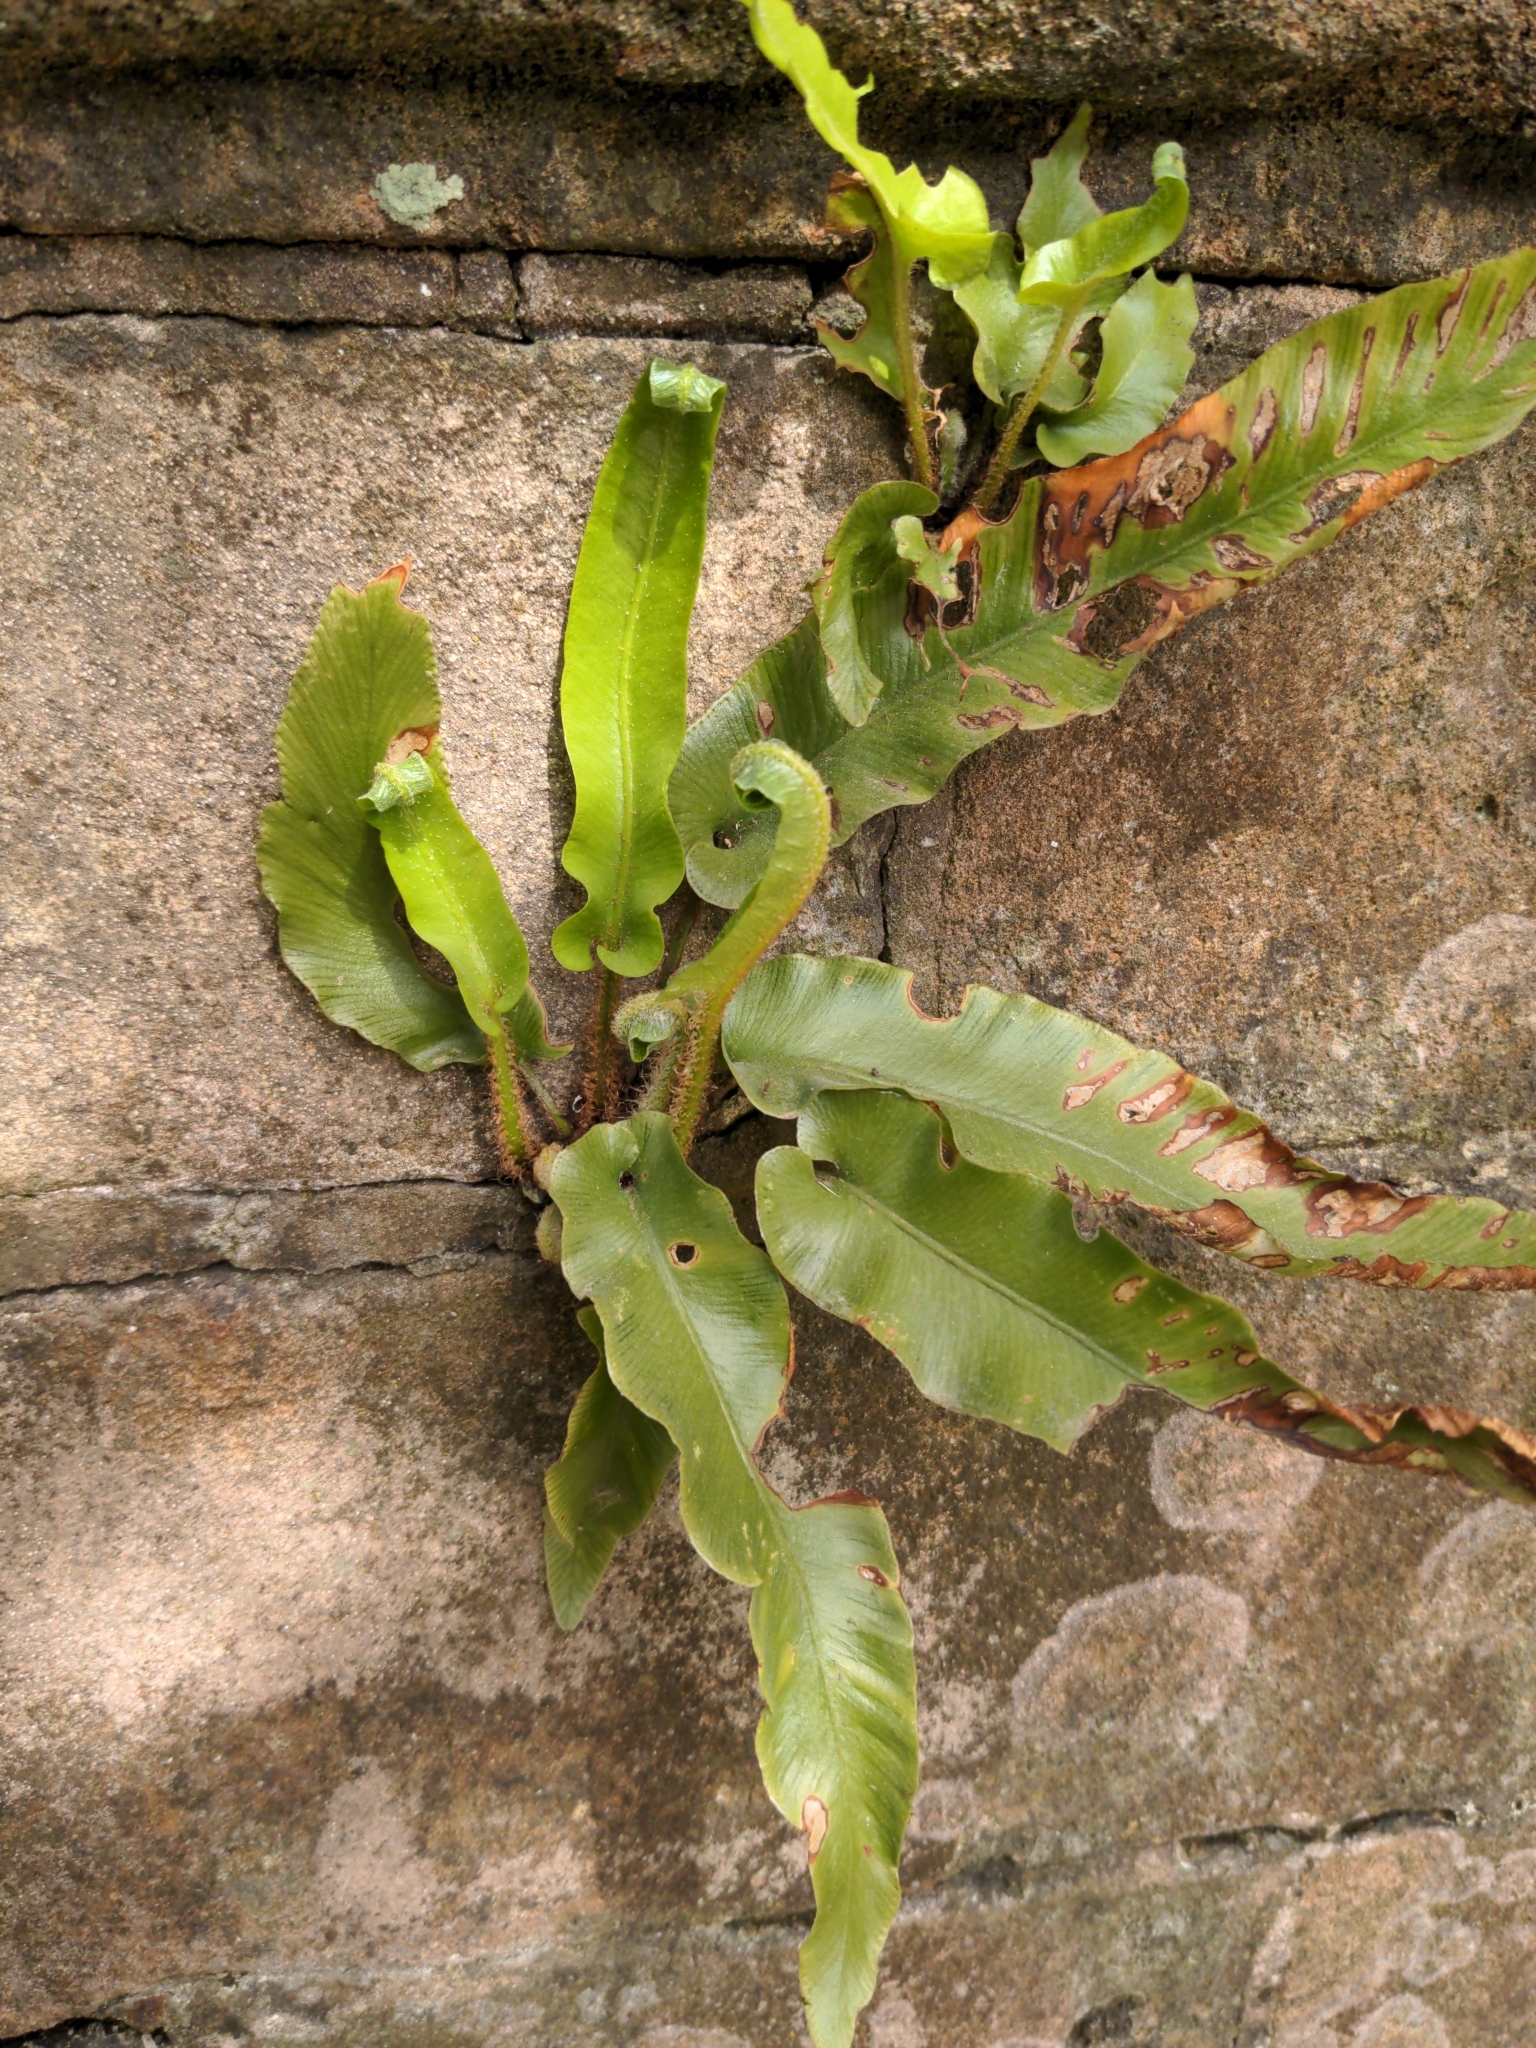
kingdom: Plantae
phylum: Tracheophyta
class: Polypodiopsida
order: Polypodiales
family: Aspleniaceae
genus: Asplenium
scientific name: Asplenium scolopendrium
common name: Hart's-tongue fern
